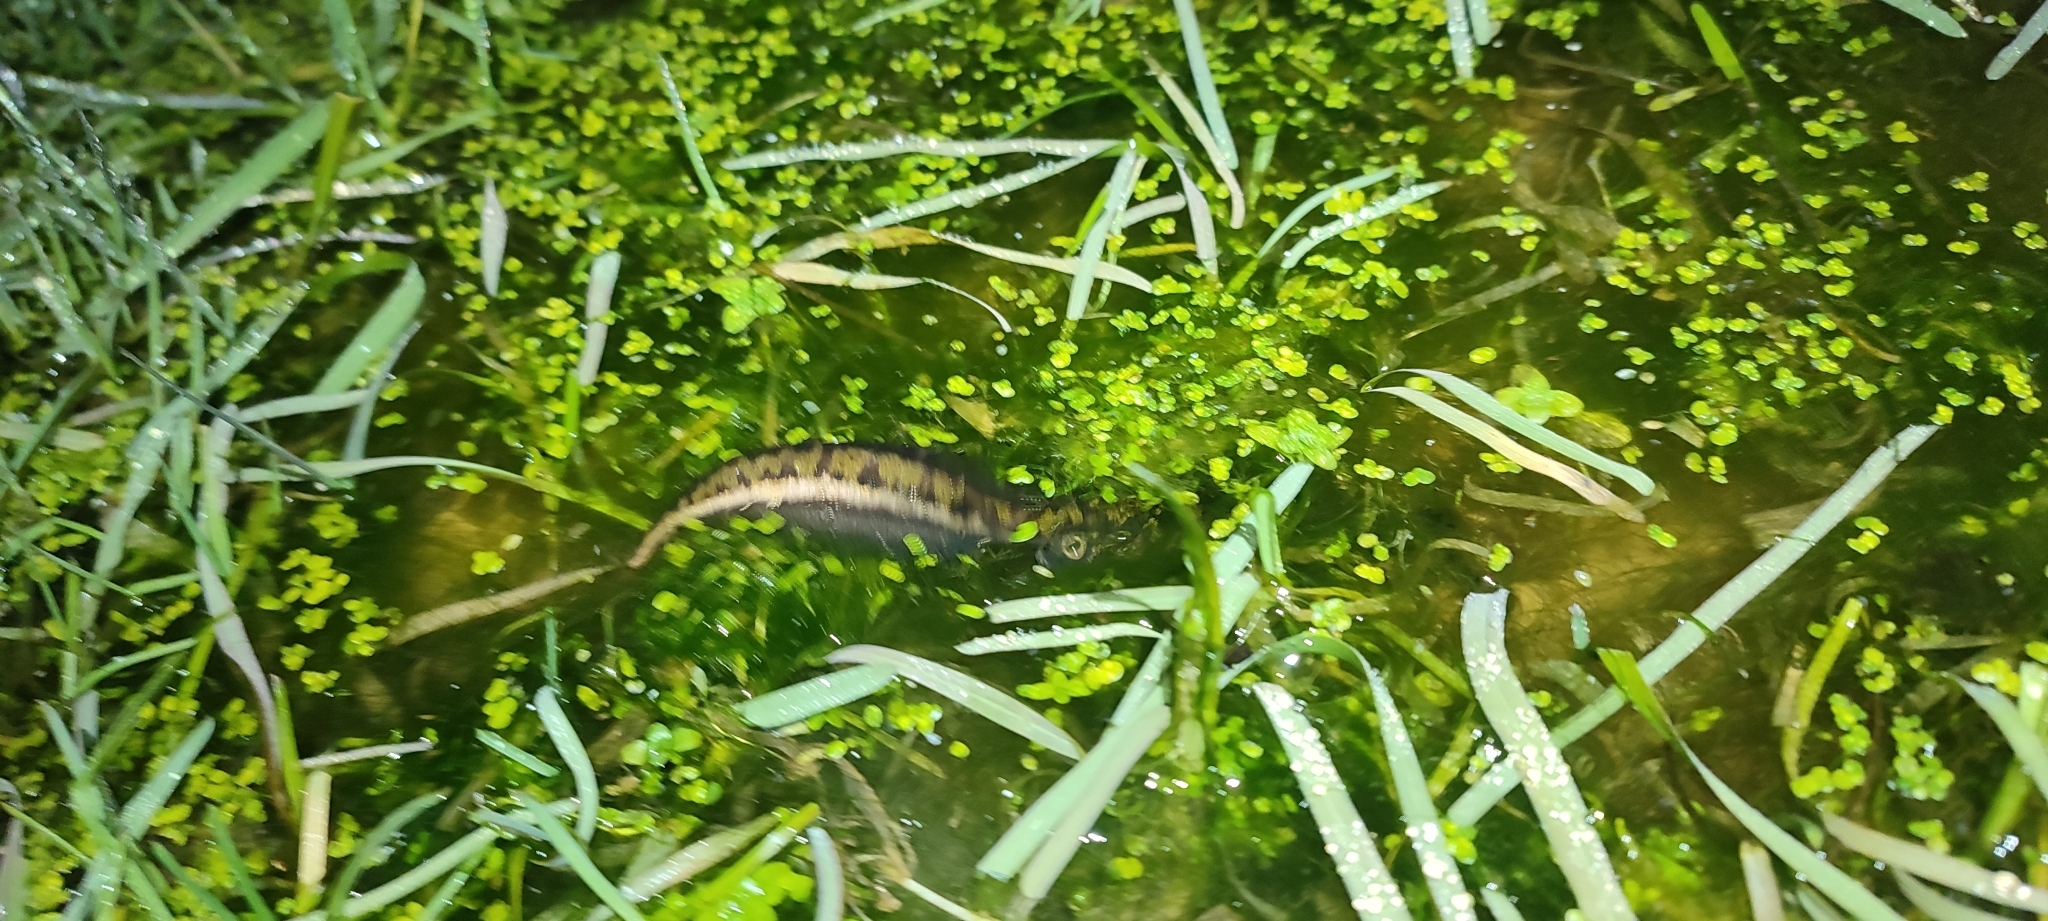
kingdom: Animalia
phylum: Chordata
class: Amphibia
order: Caudata
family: Salamandridae
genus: Triturus
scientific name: Triturus marmoratus
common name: Marbled newt
